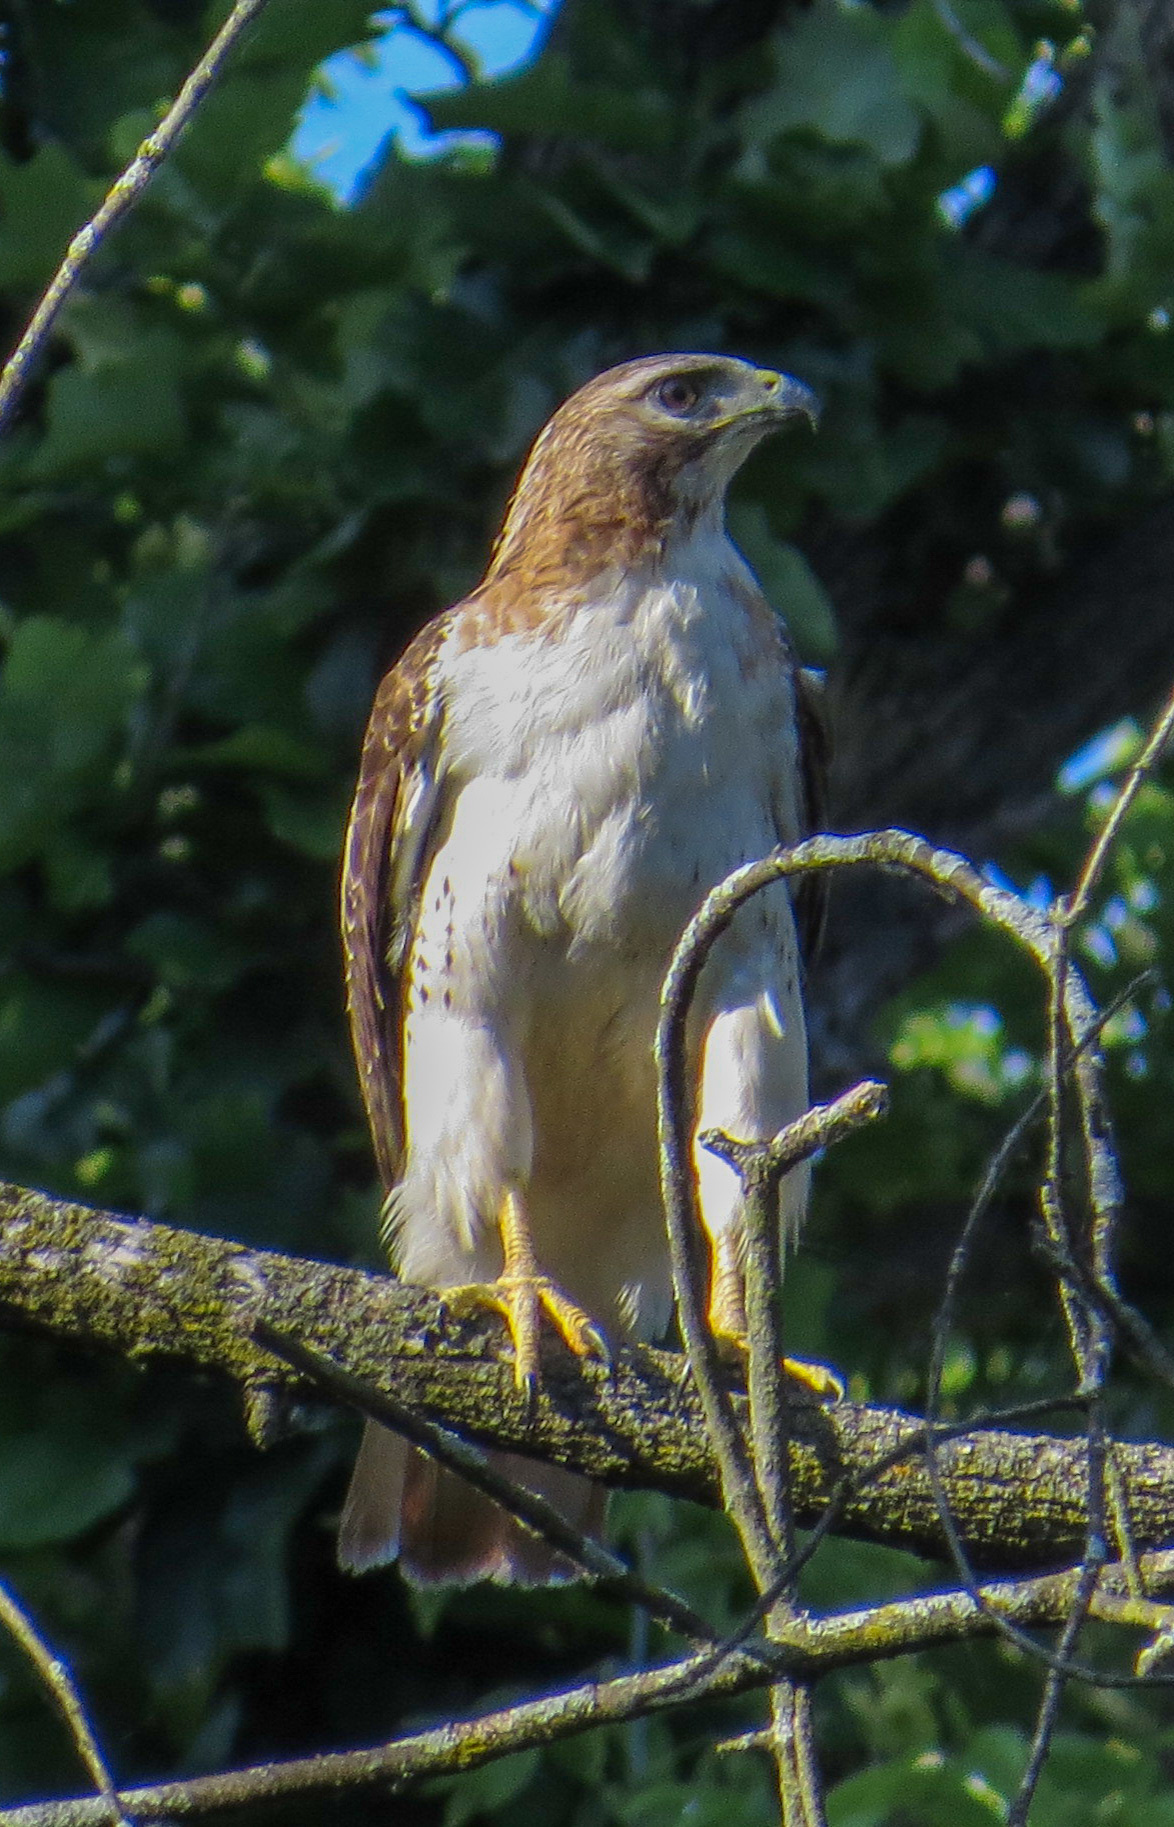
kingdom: Animalia
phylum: Chordata
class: Aves
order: Accipitriformes
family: Accipitridae
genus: Buteo
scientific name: Buteo jamaicensis
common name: Red-tailed hawk
